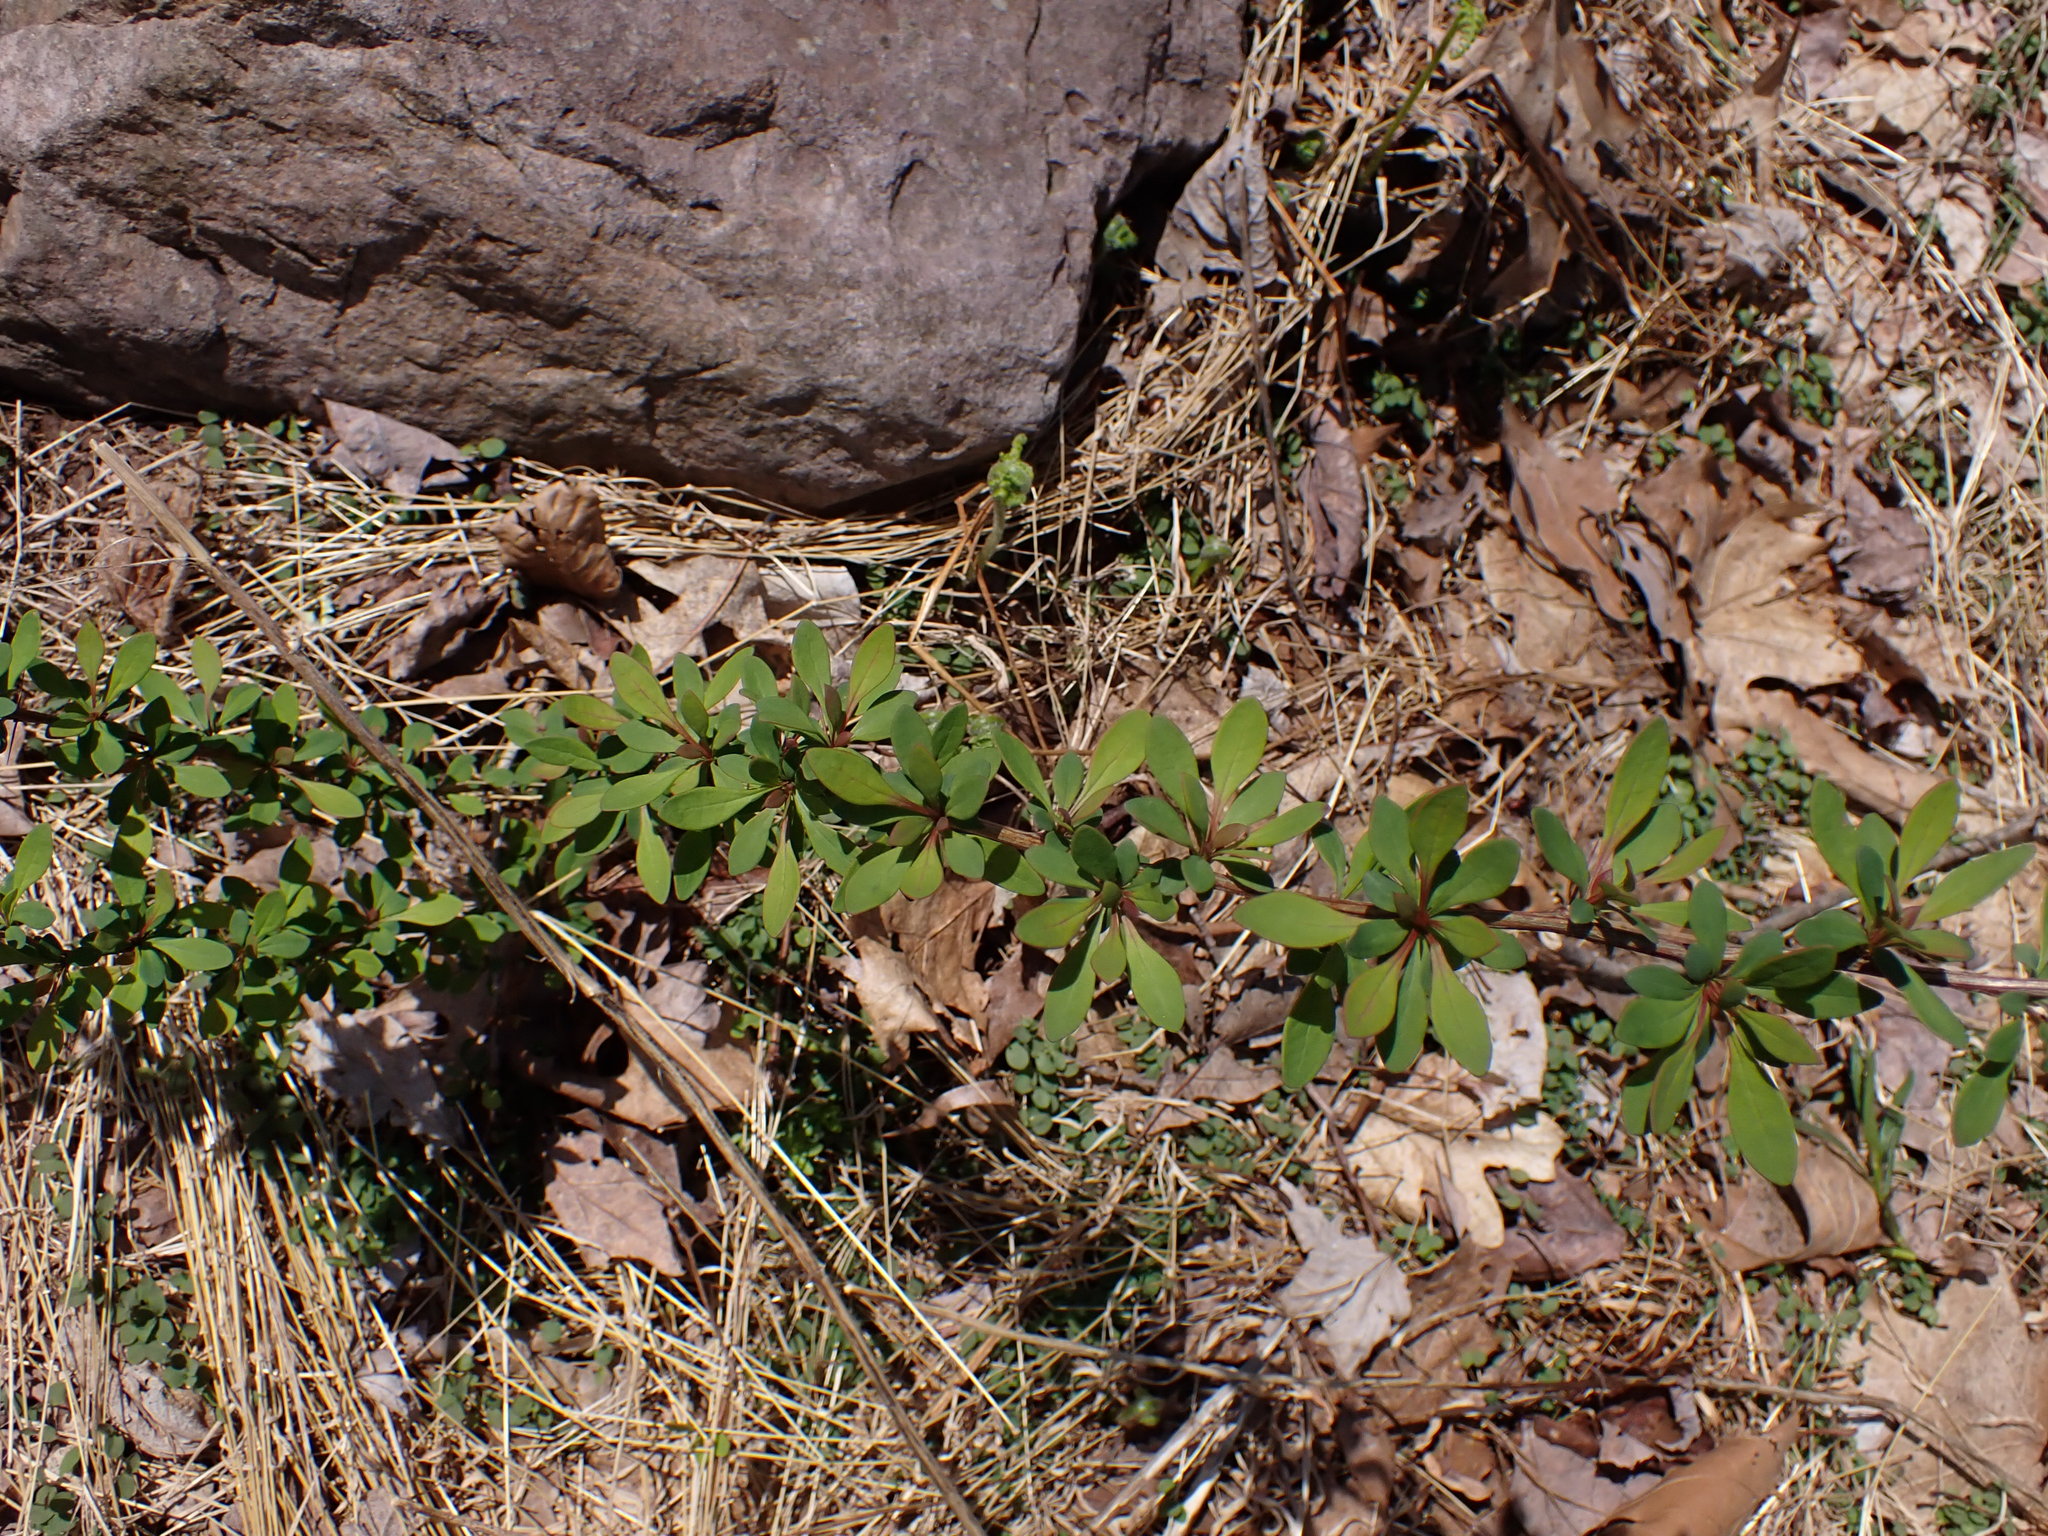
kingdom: Plantae
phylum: Tracheophyta
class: Magnoliopsida
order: Ranunculales
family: Berberidaceae
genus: Berberis
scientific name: Berberis thunbergii
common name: Japanese barberry
